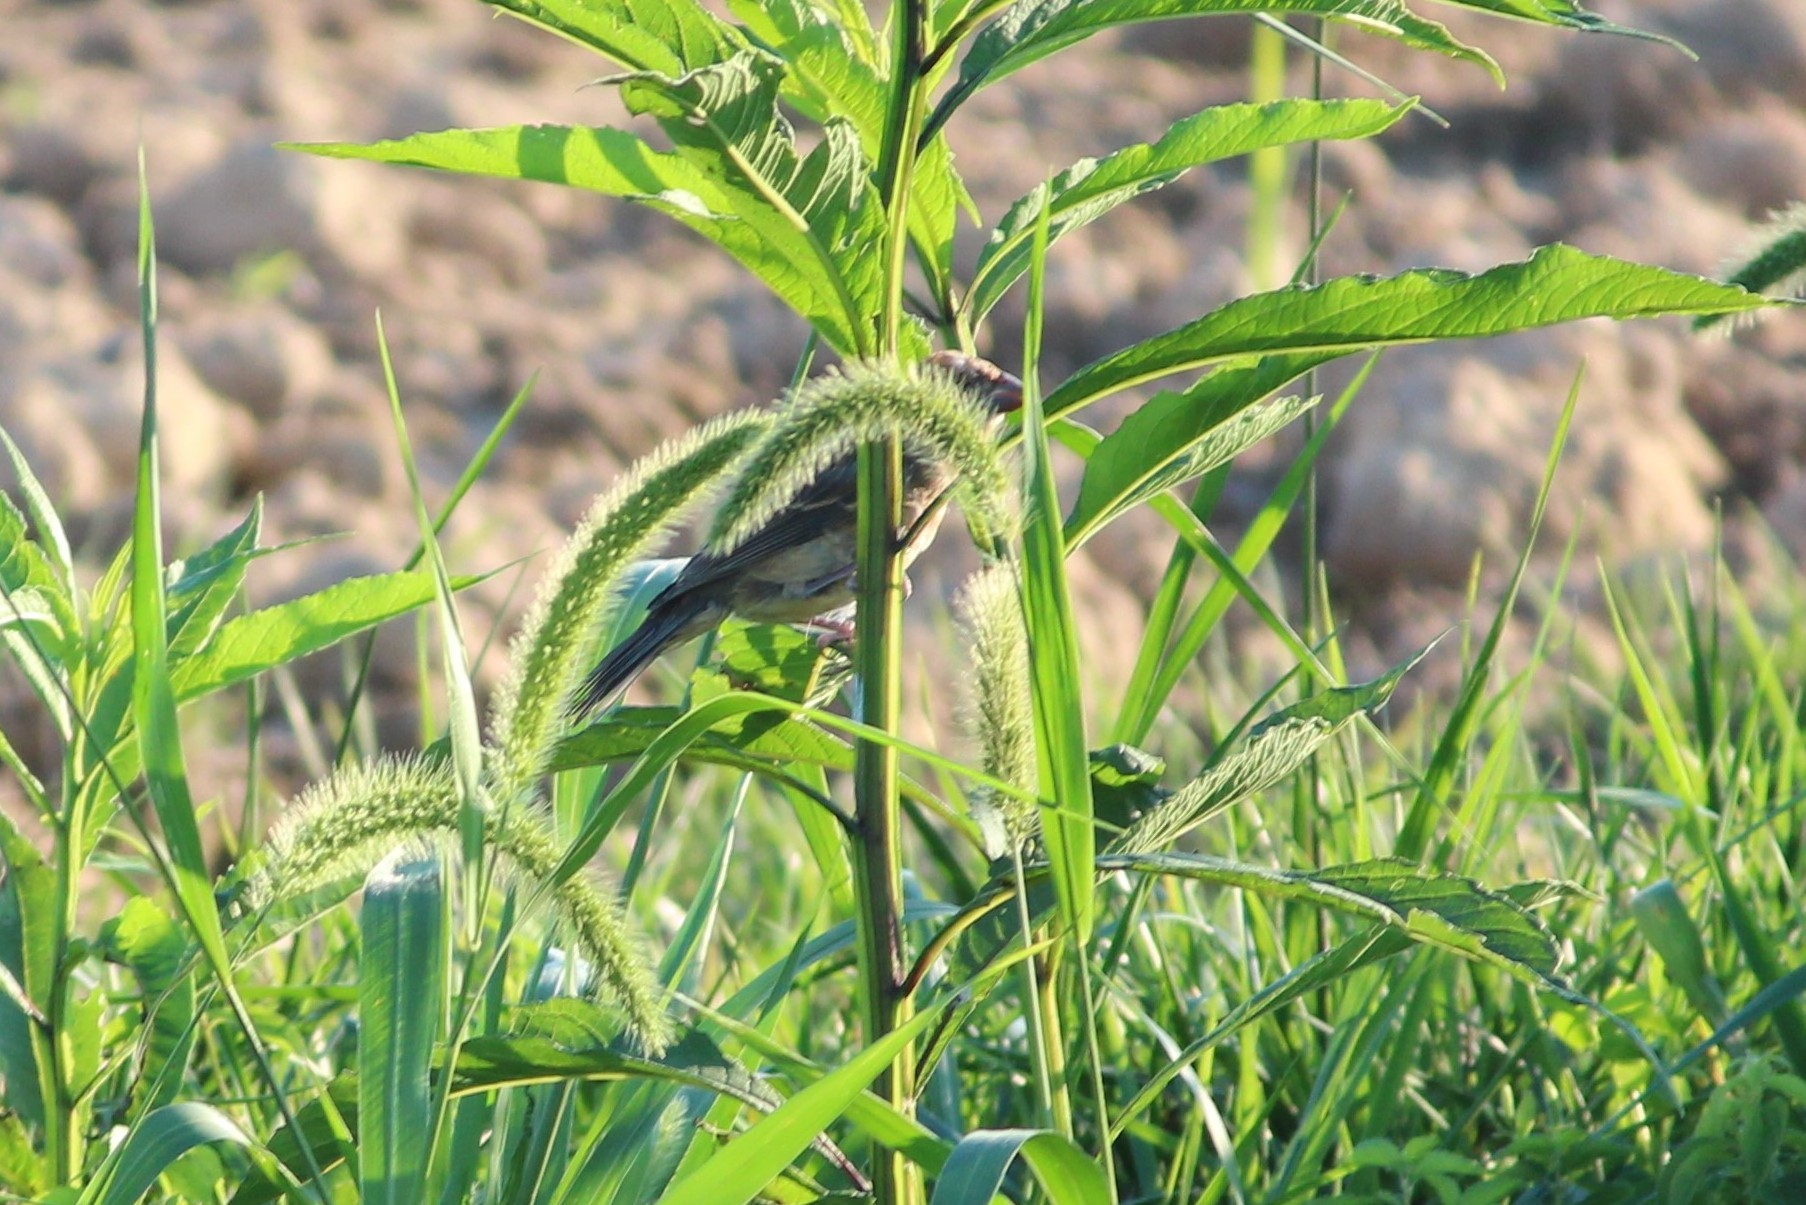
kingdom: Animalia
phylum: Chordata
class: Aves
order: Passeriformes
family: Cardinalidae
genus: Passerina
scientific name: Passerina cyanea
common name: Indigo bunting
